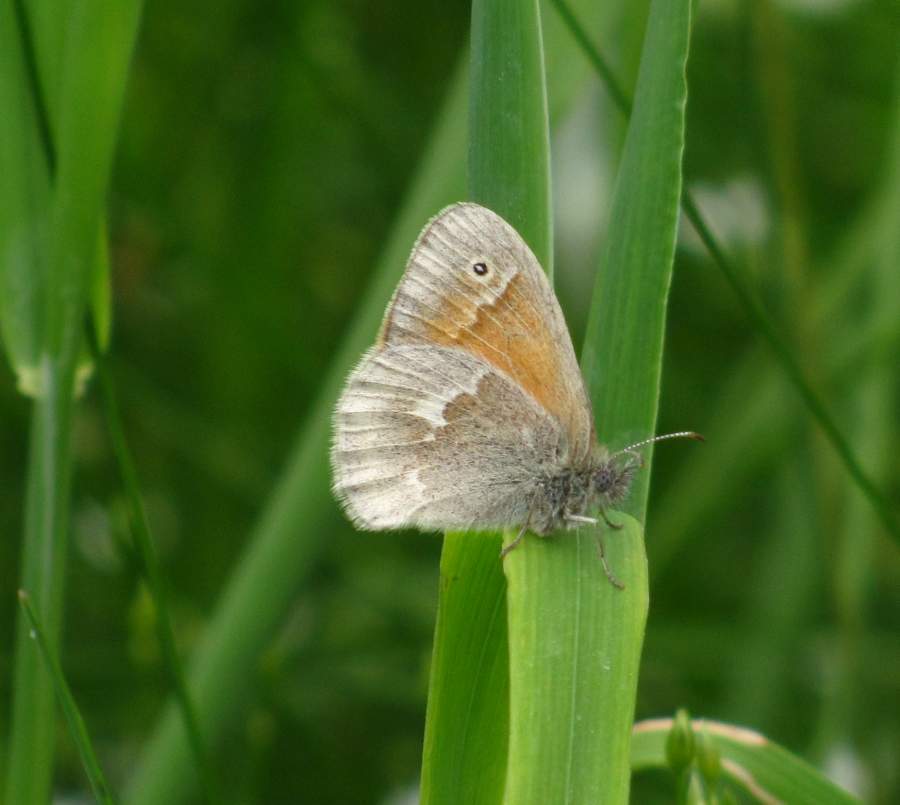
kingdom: Animalia
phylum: Arthropoda
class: Insecta
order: Lepidoptera
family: Nymphalidae
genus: Coenonympha
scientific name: Coenonympha california
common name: Common ringlet
